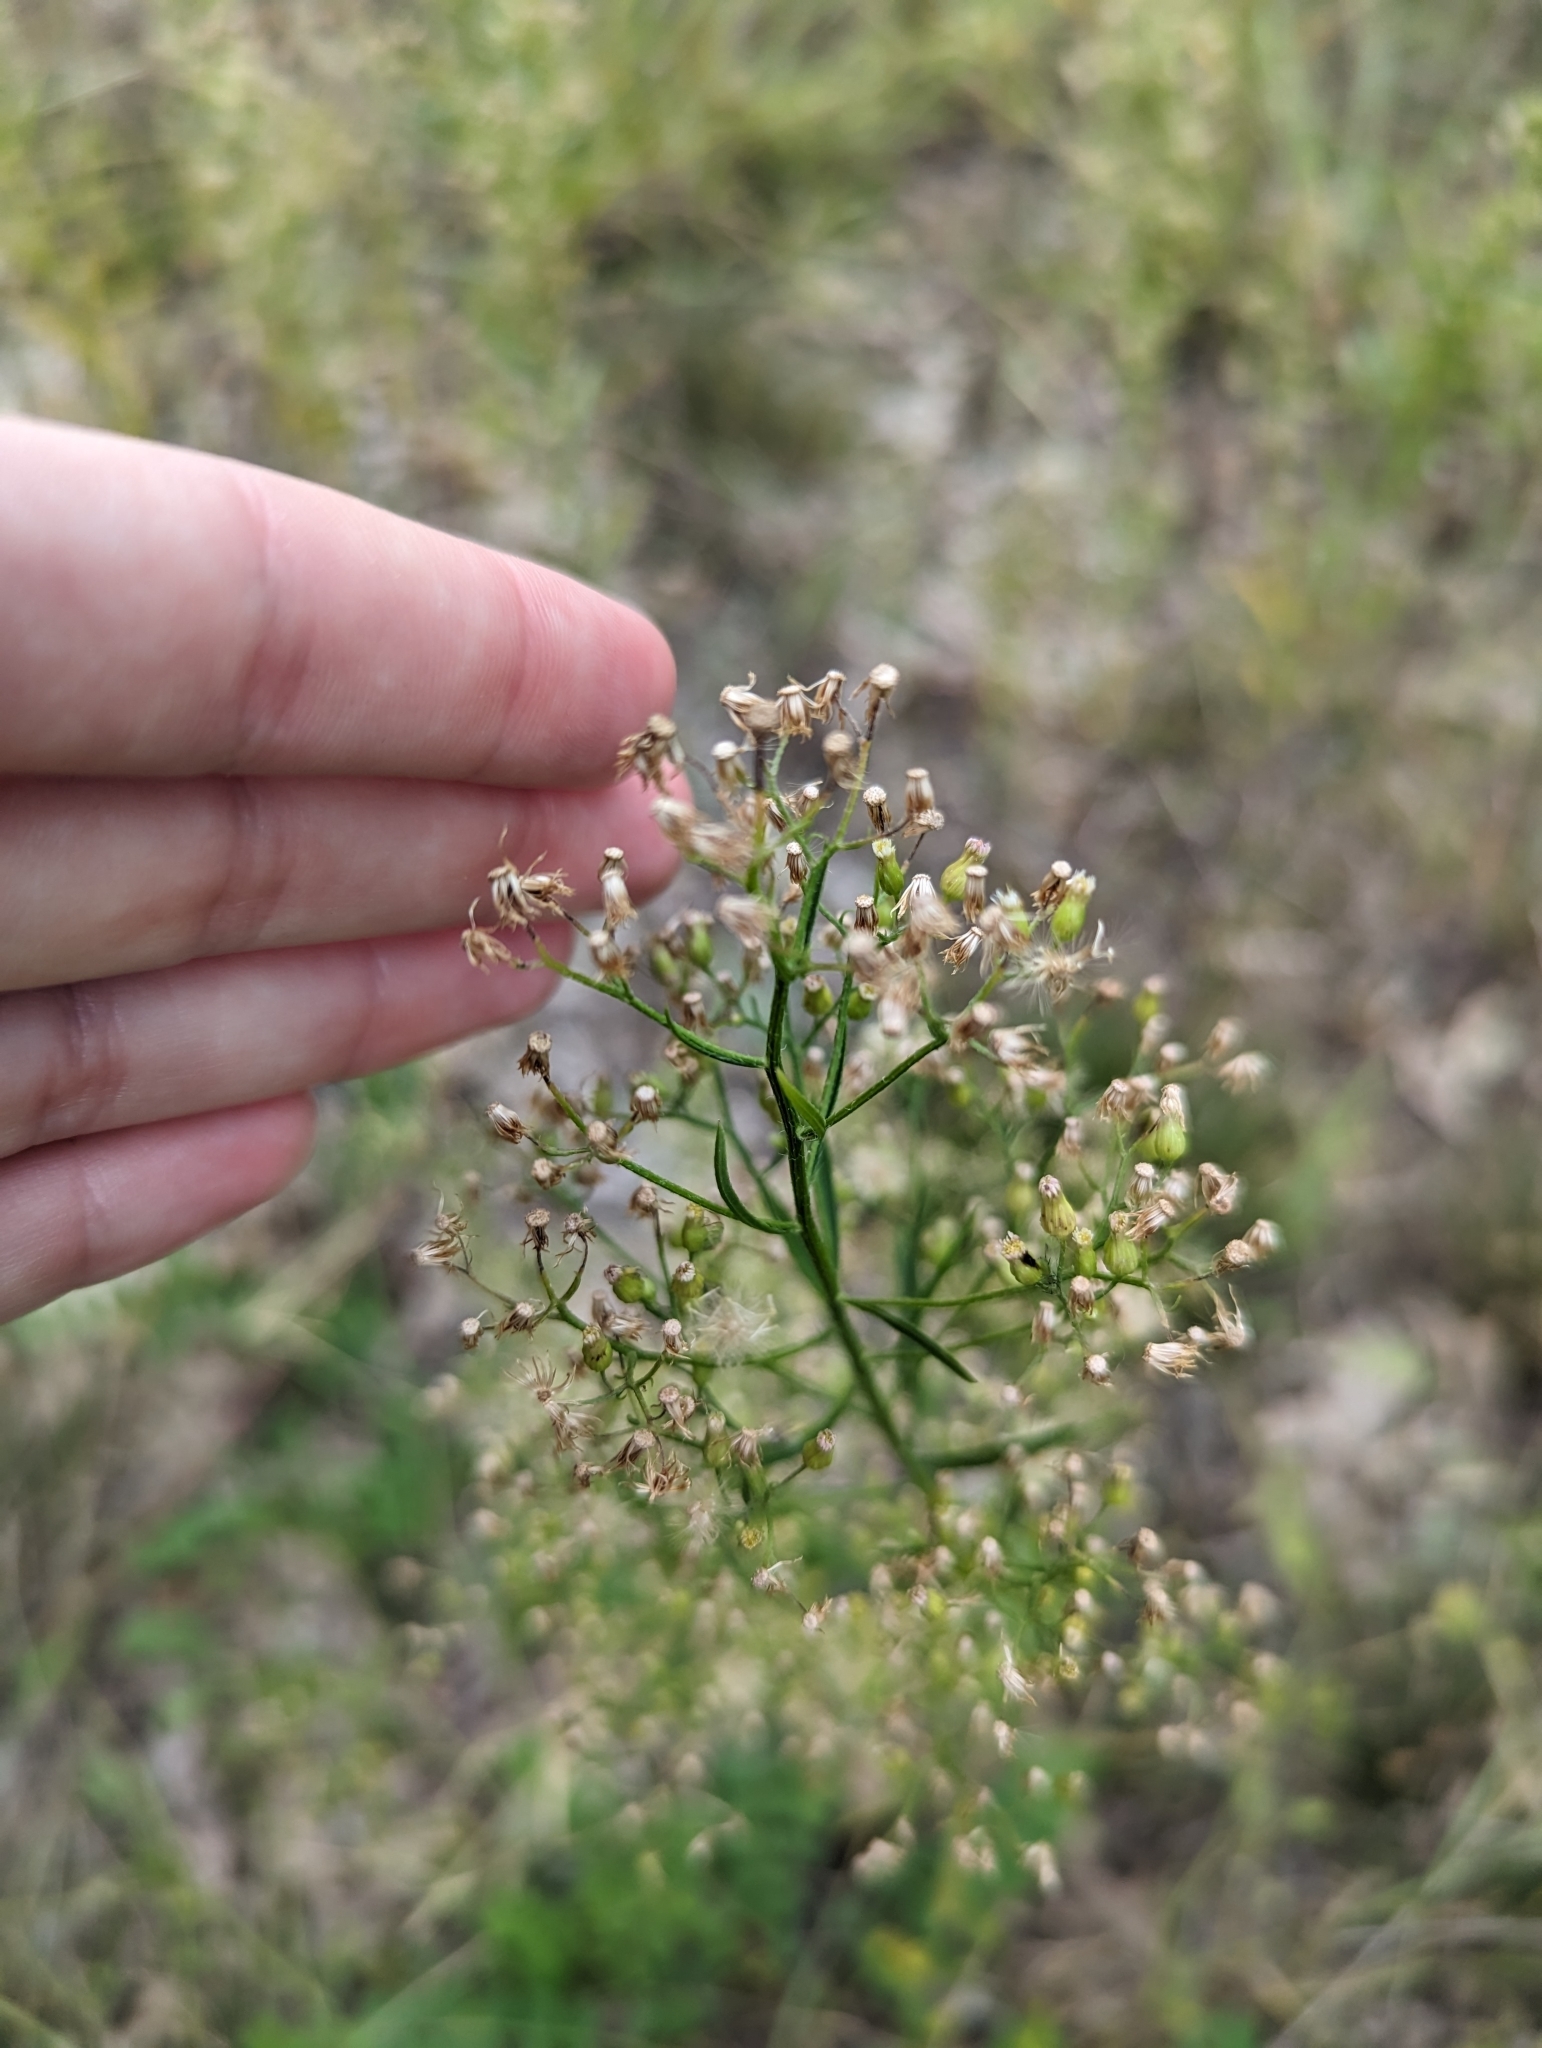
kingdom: Plantae
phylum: Tracheophyta
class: Magnoliopsida
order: Asterales
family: Asteraceae
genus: Erigeron
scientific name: Erigeron canadensis
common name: Canadian fleabane
